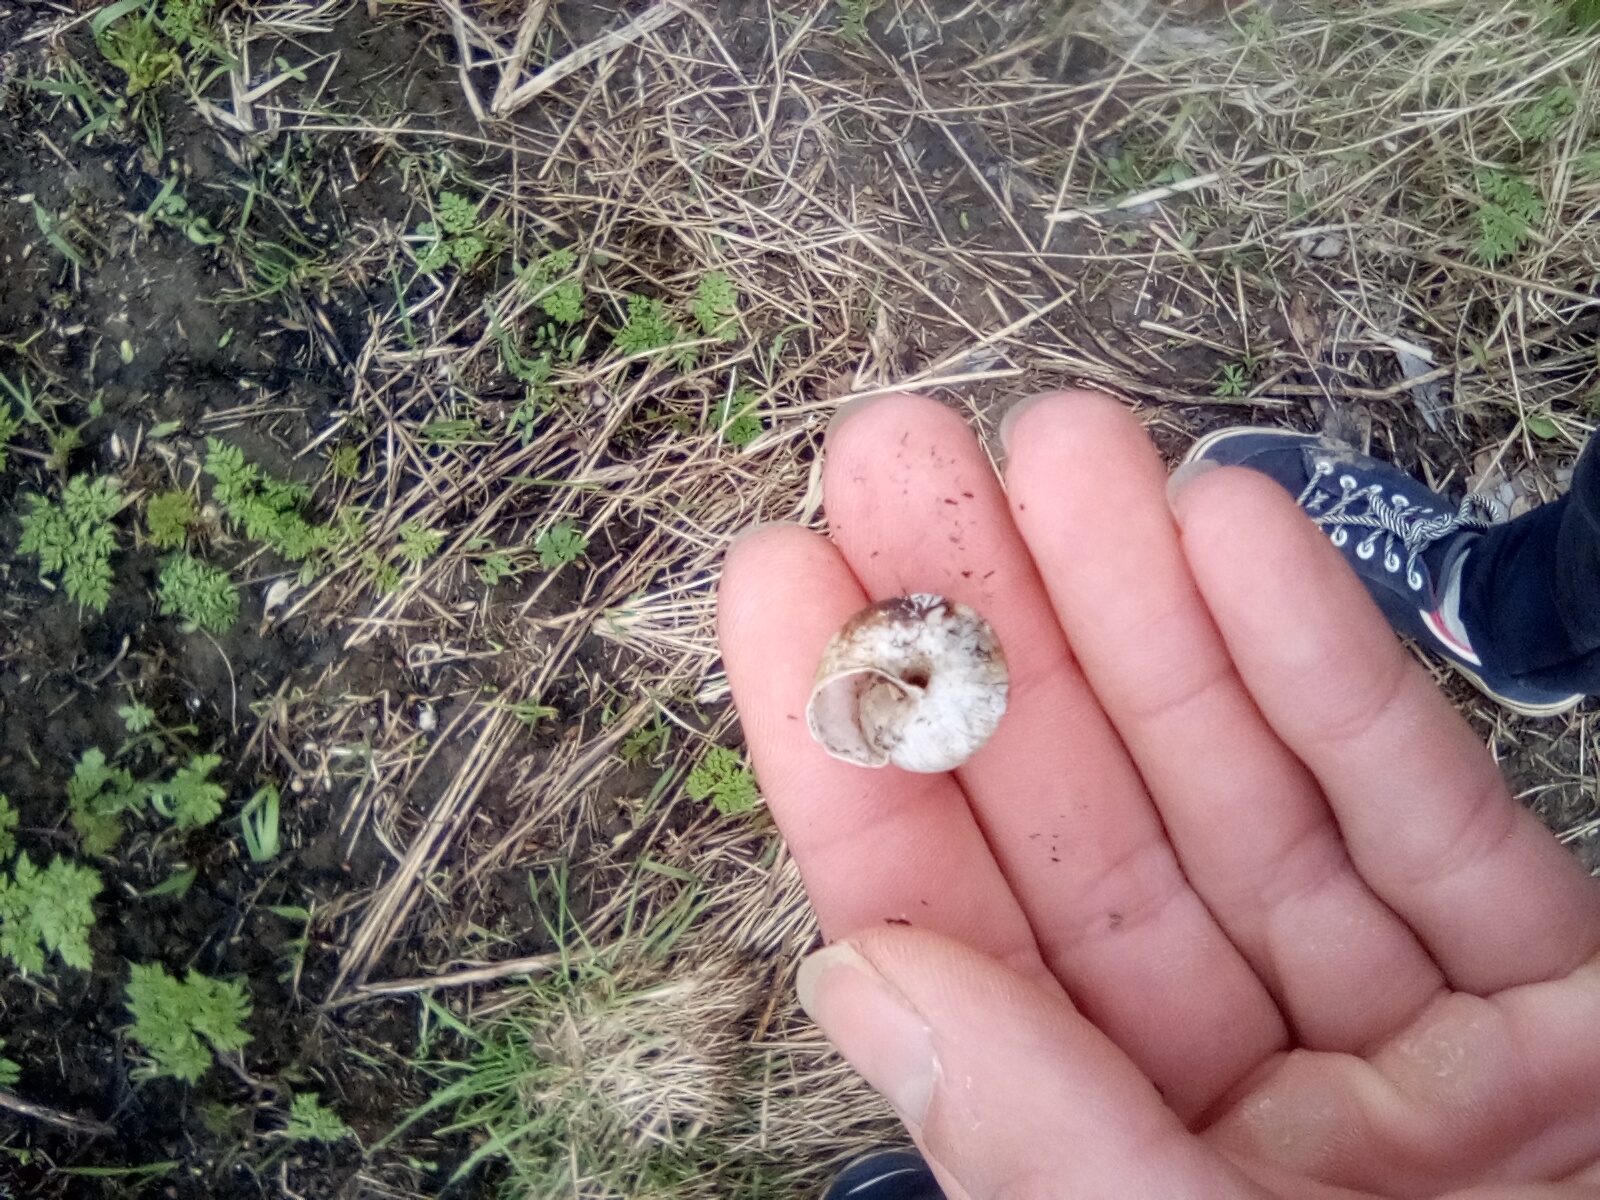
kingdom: Animalia
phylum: Mollusca
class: Gastropoda
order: Stylommatophora
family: Camaenidae
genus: Fruticicola
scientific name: Fruticicola fruticum
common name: Bush snail
